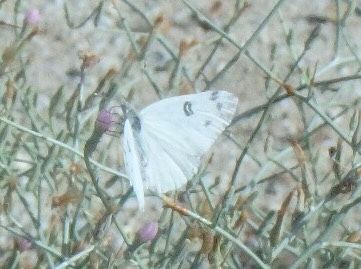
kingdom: Animalia
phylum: Arthropoda
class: Insecta
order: Lepidoptera
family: Pieridae
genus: Pontia
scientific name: Pontia beckerii
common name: Becker's white
